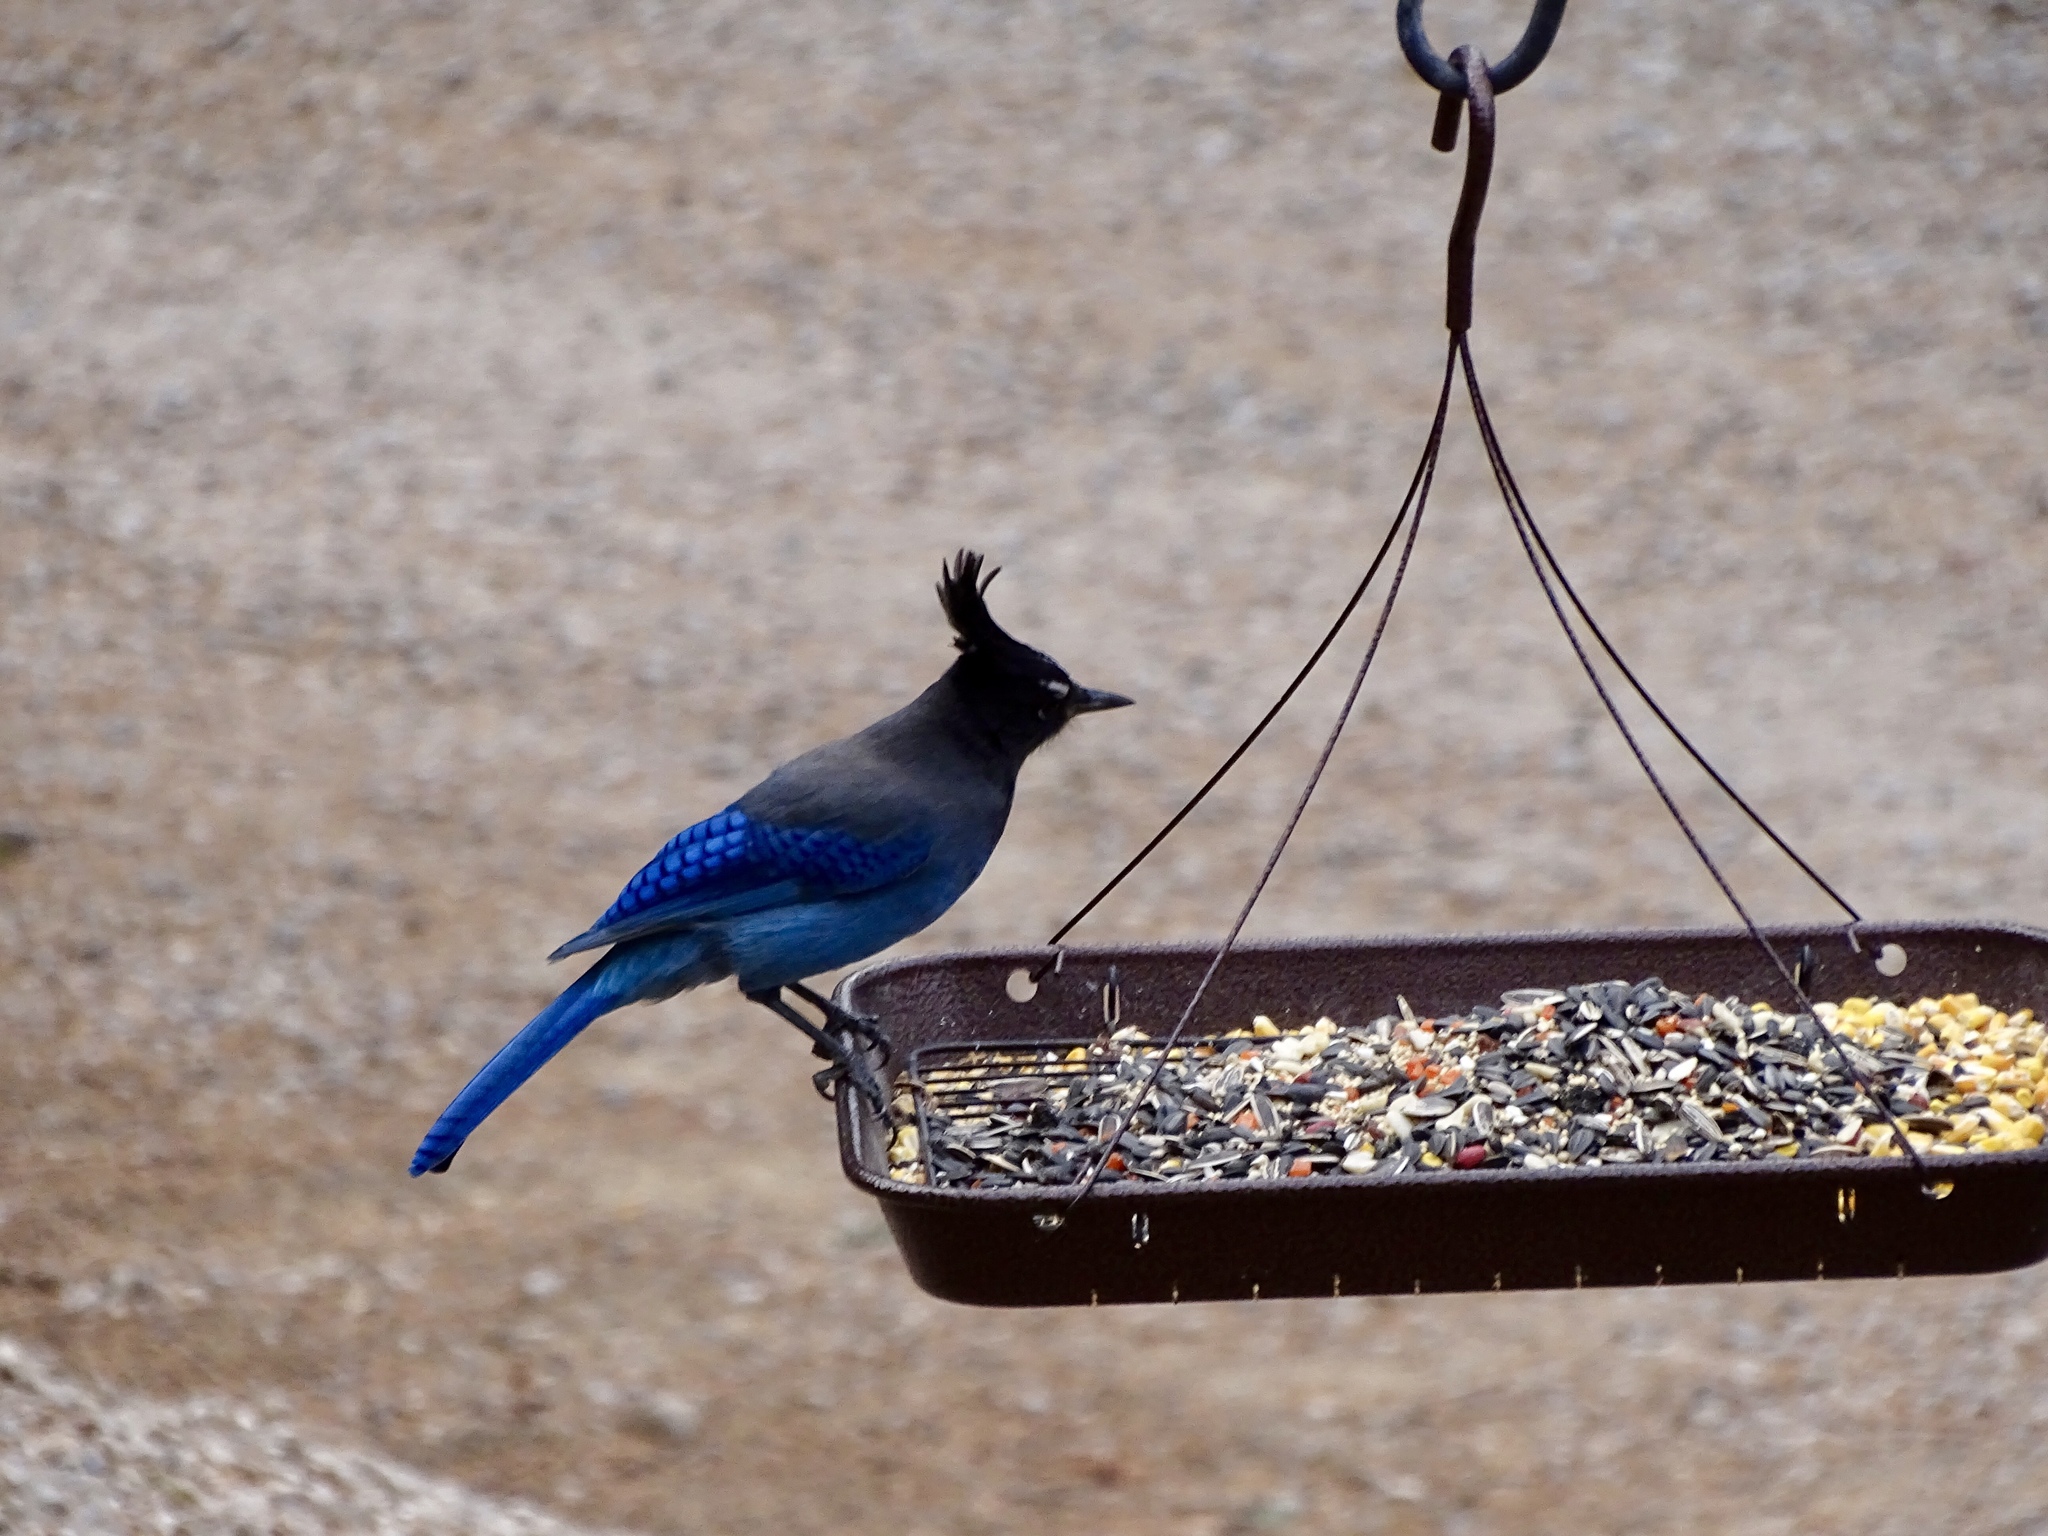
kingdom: Animalia
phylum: Chordata
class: Aves
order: Passeriformes
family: Corvidae
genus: Cyanocitta
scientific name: Cyanocitta stelleri
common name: Steller's jay
